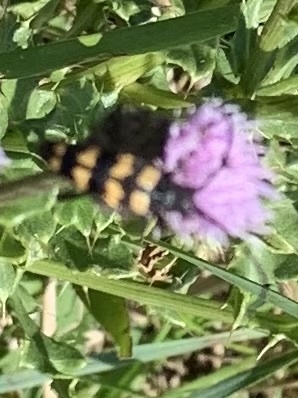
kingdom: Animalia
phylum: Arthropoda
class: Insecta
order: Coleoptera
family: Cerambycidae
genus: Leptura
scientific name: Leptura quadrifasciata
